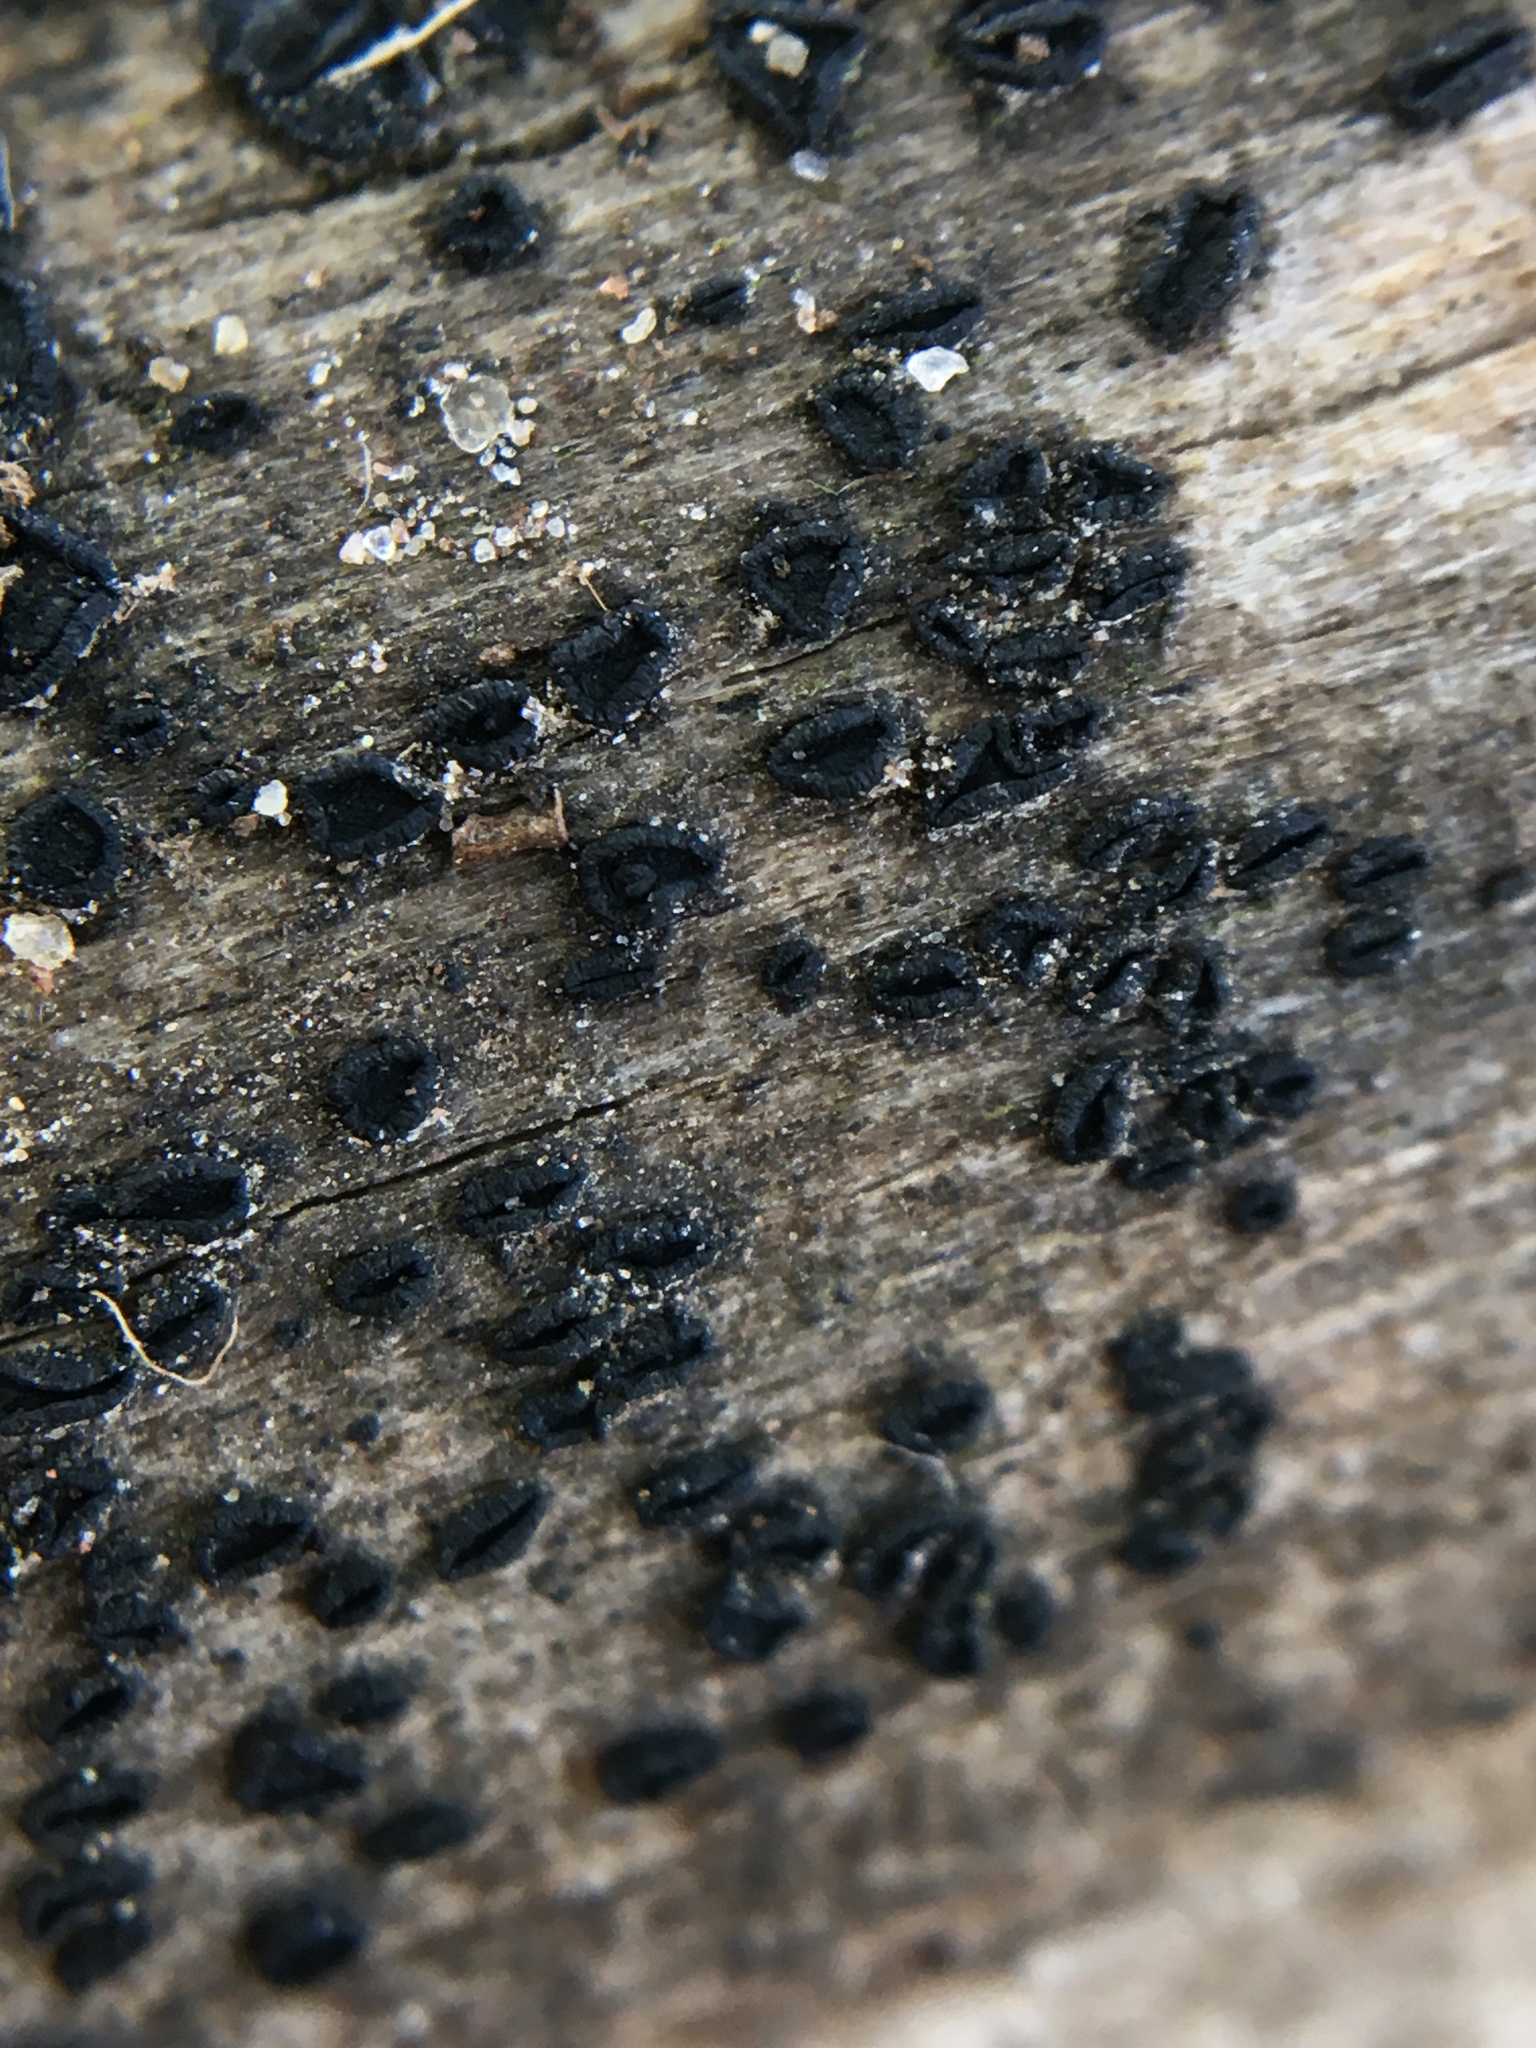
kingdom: Fungi
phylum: Ascomycota
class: Dothideomycetes
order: Patellariales
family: Patellariaceae
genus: Patellaria
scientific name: Patellaria atrata
